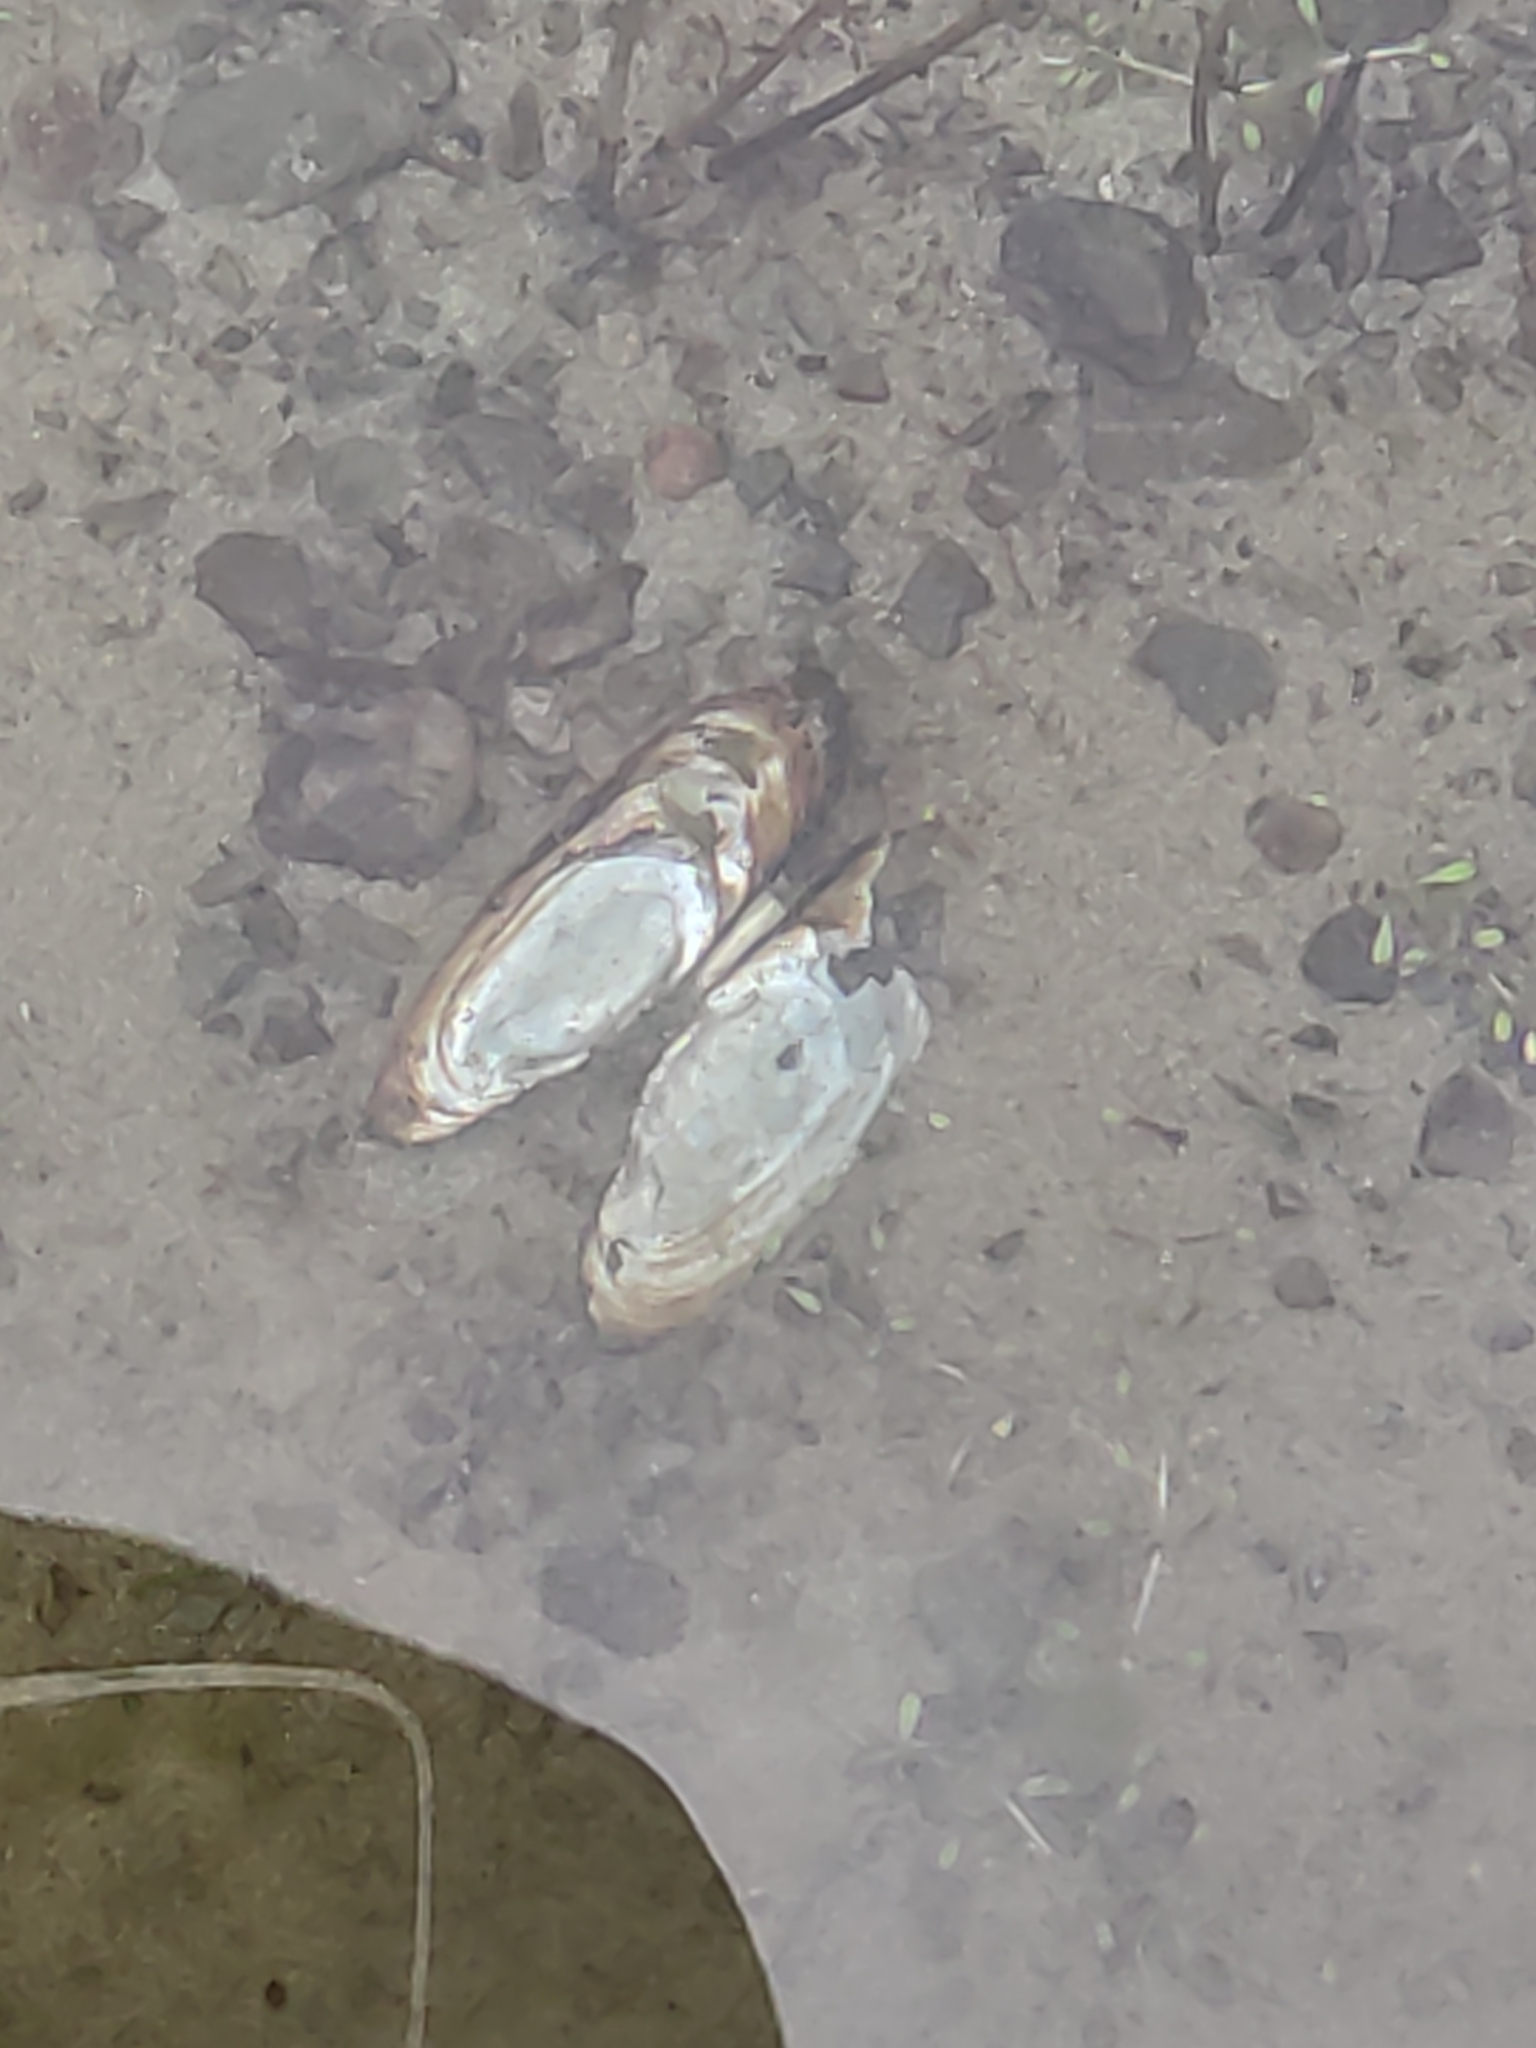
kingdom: Animalia
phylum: Mollusca
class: Bivalvia
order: Unionida
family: Hyriidae
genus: Echyridella
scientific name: Echyridella menziesii
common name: New zealand freshwater mussel
